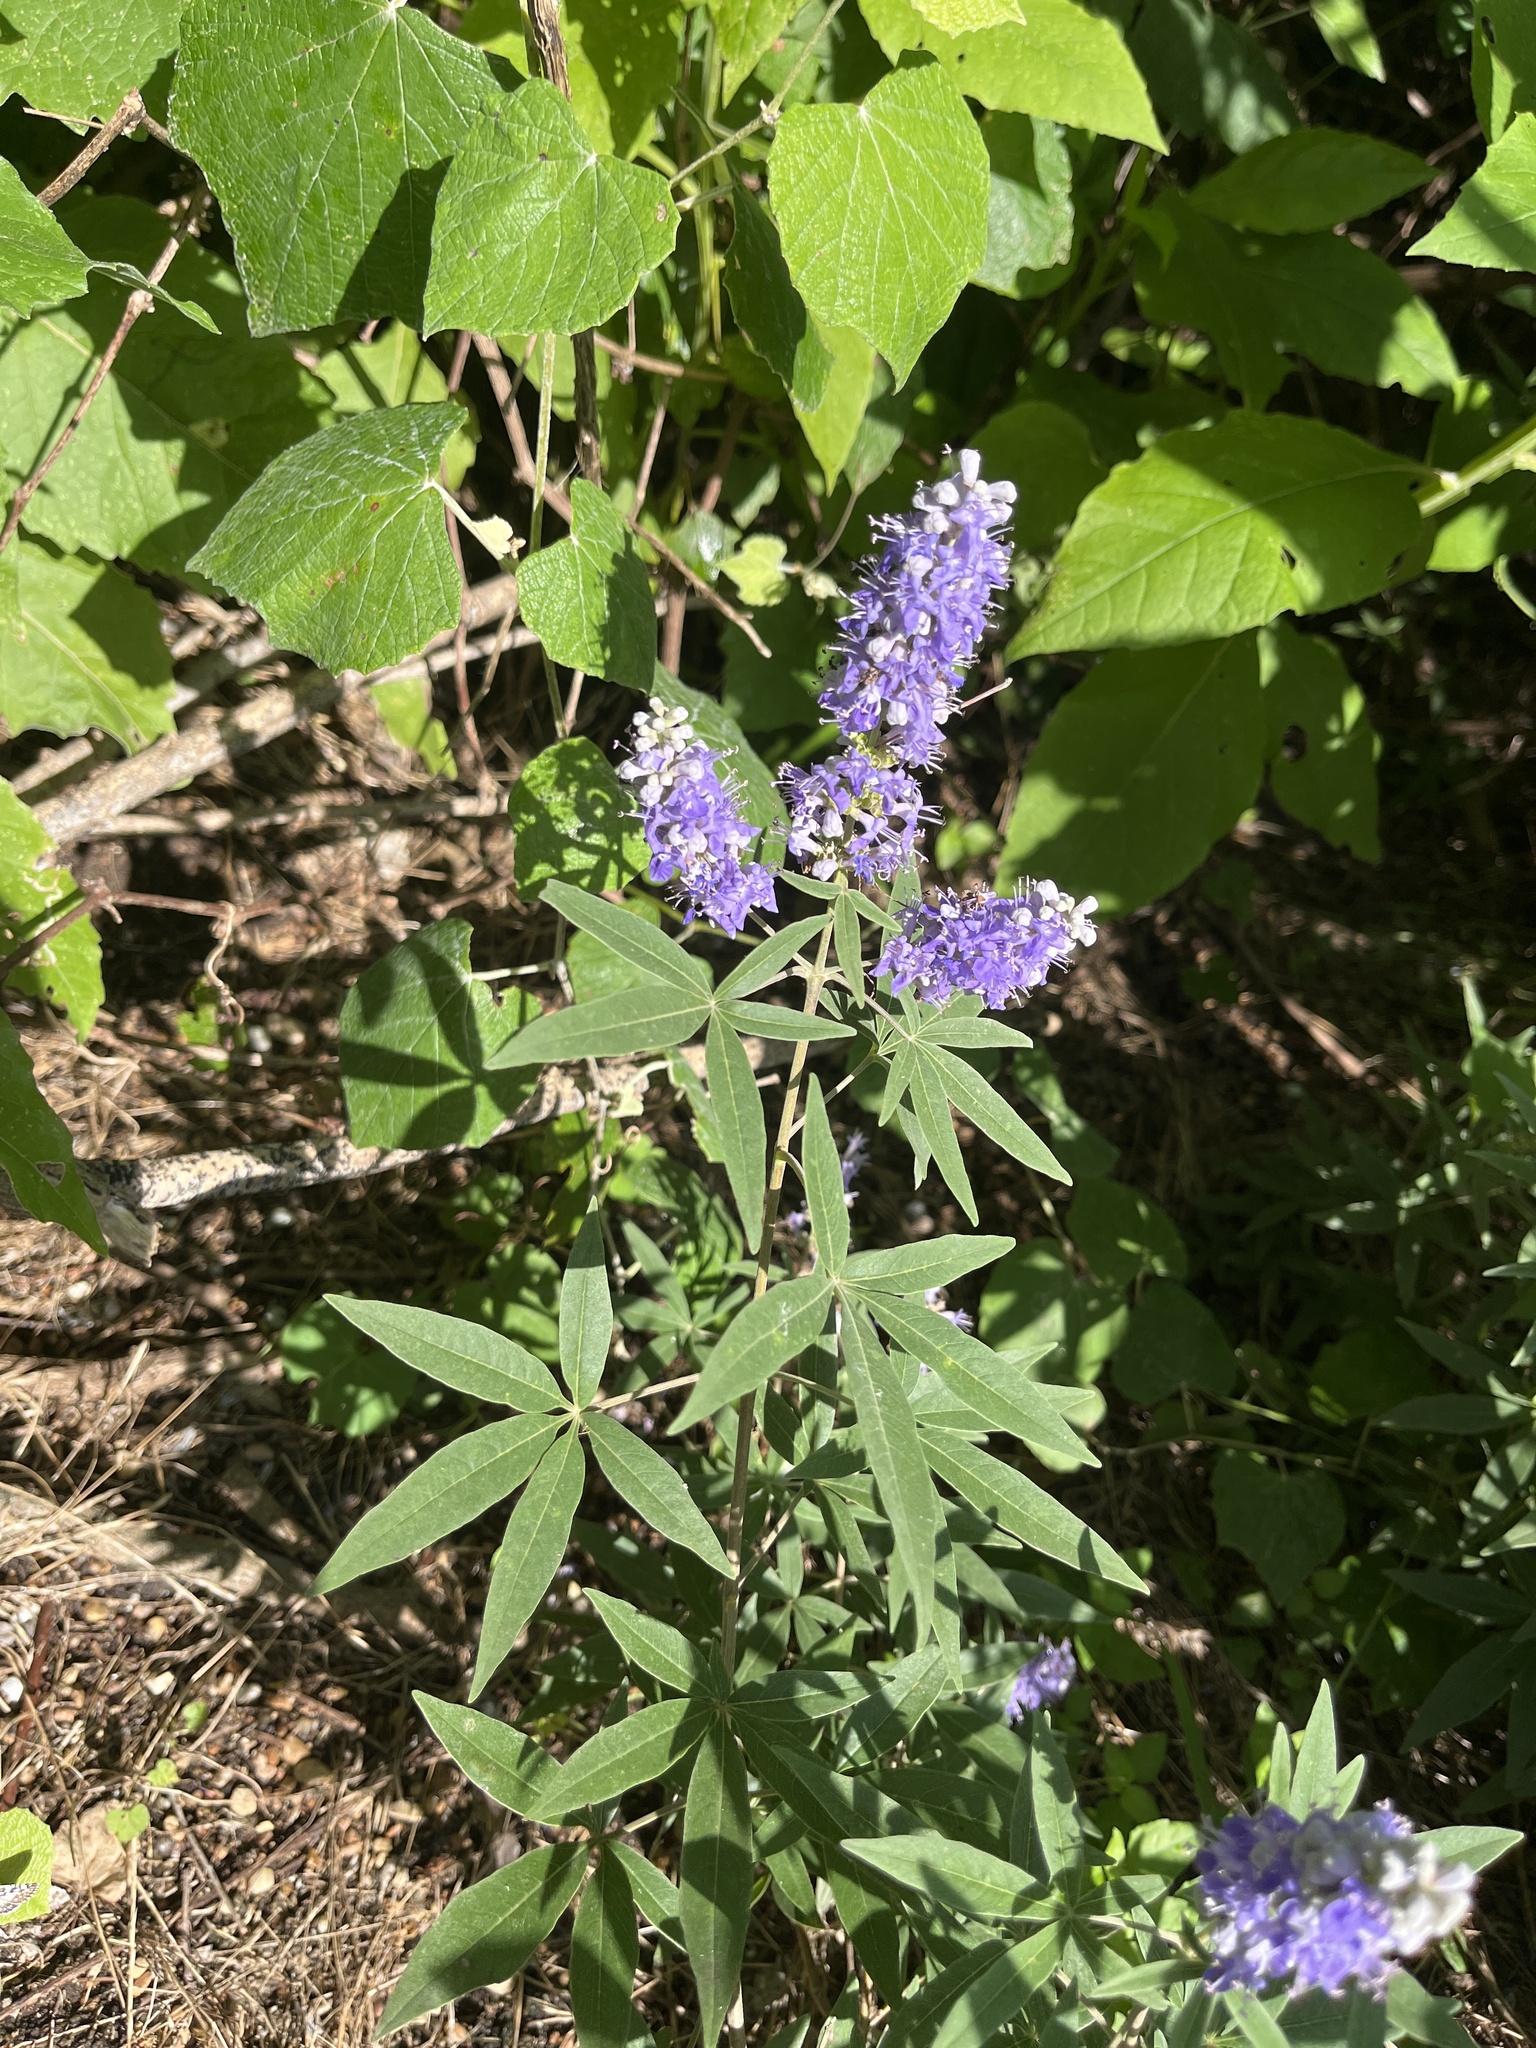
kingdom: Plantae
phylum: Tracheophyta
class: Magnoliopsida
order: Lamiales
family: Lamiaceae
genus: Vitex
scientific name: Vitex agnus-castus
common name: Chasteberry
